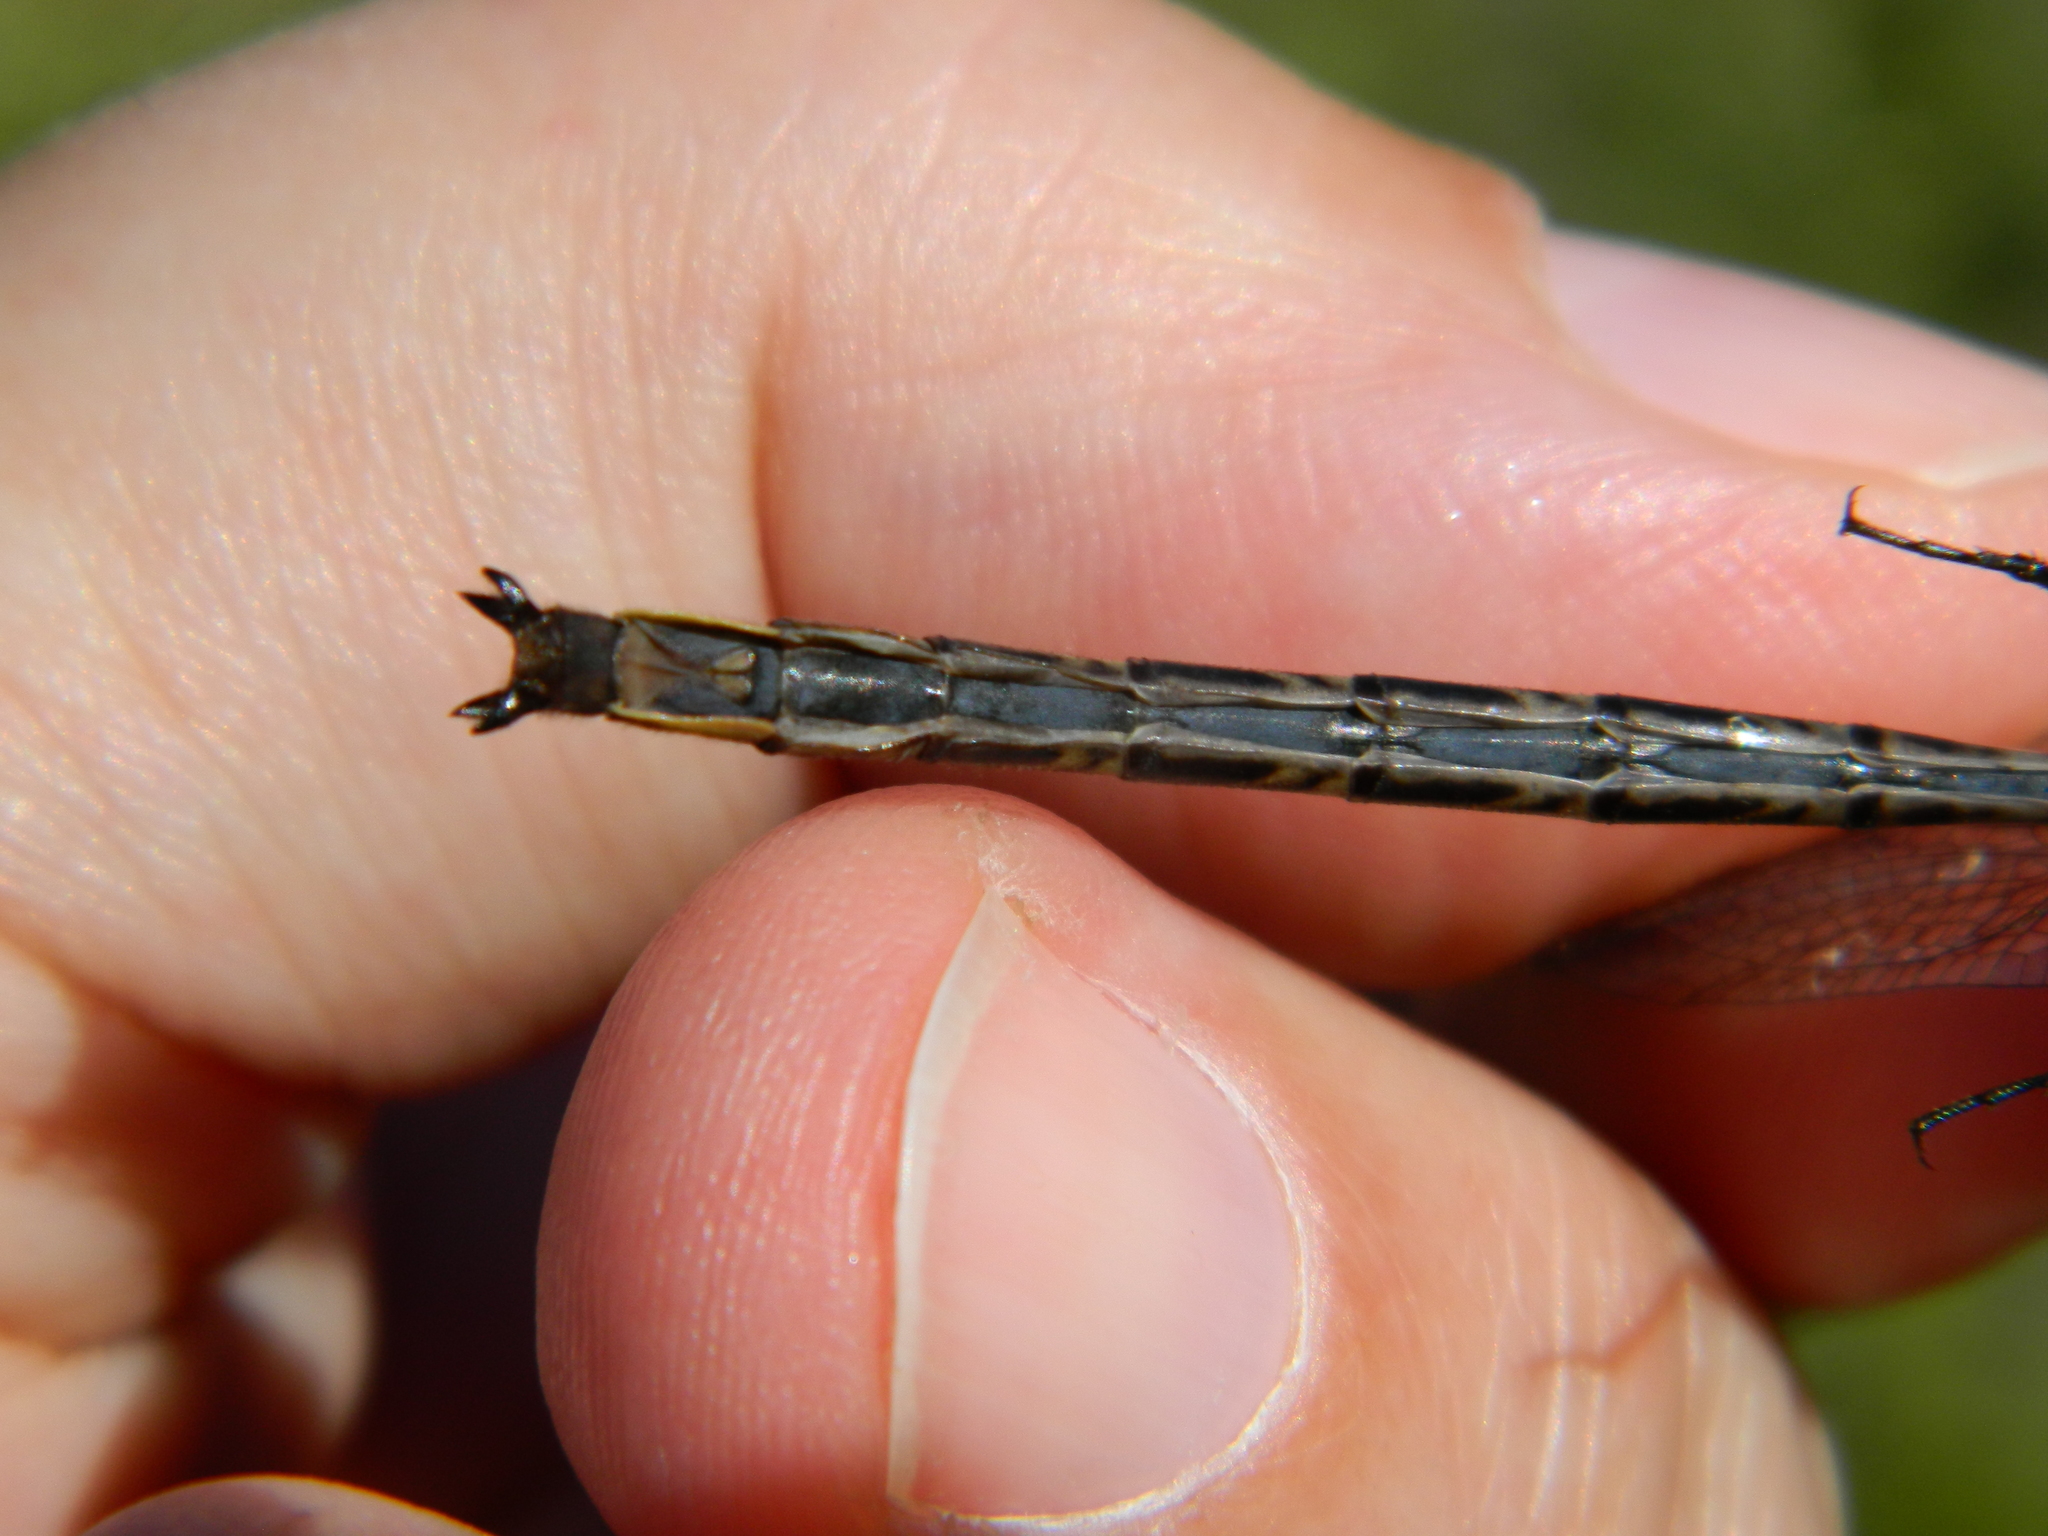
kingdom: Animalia
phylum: Arthropoda
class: Insecta
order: Odonata
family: Gomphidae
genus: Phanogomphus
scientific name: Phanogomphus spicatus
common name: Dusky clubtail
